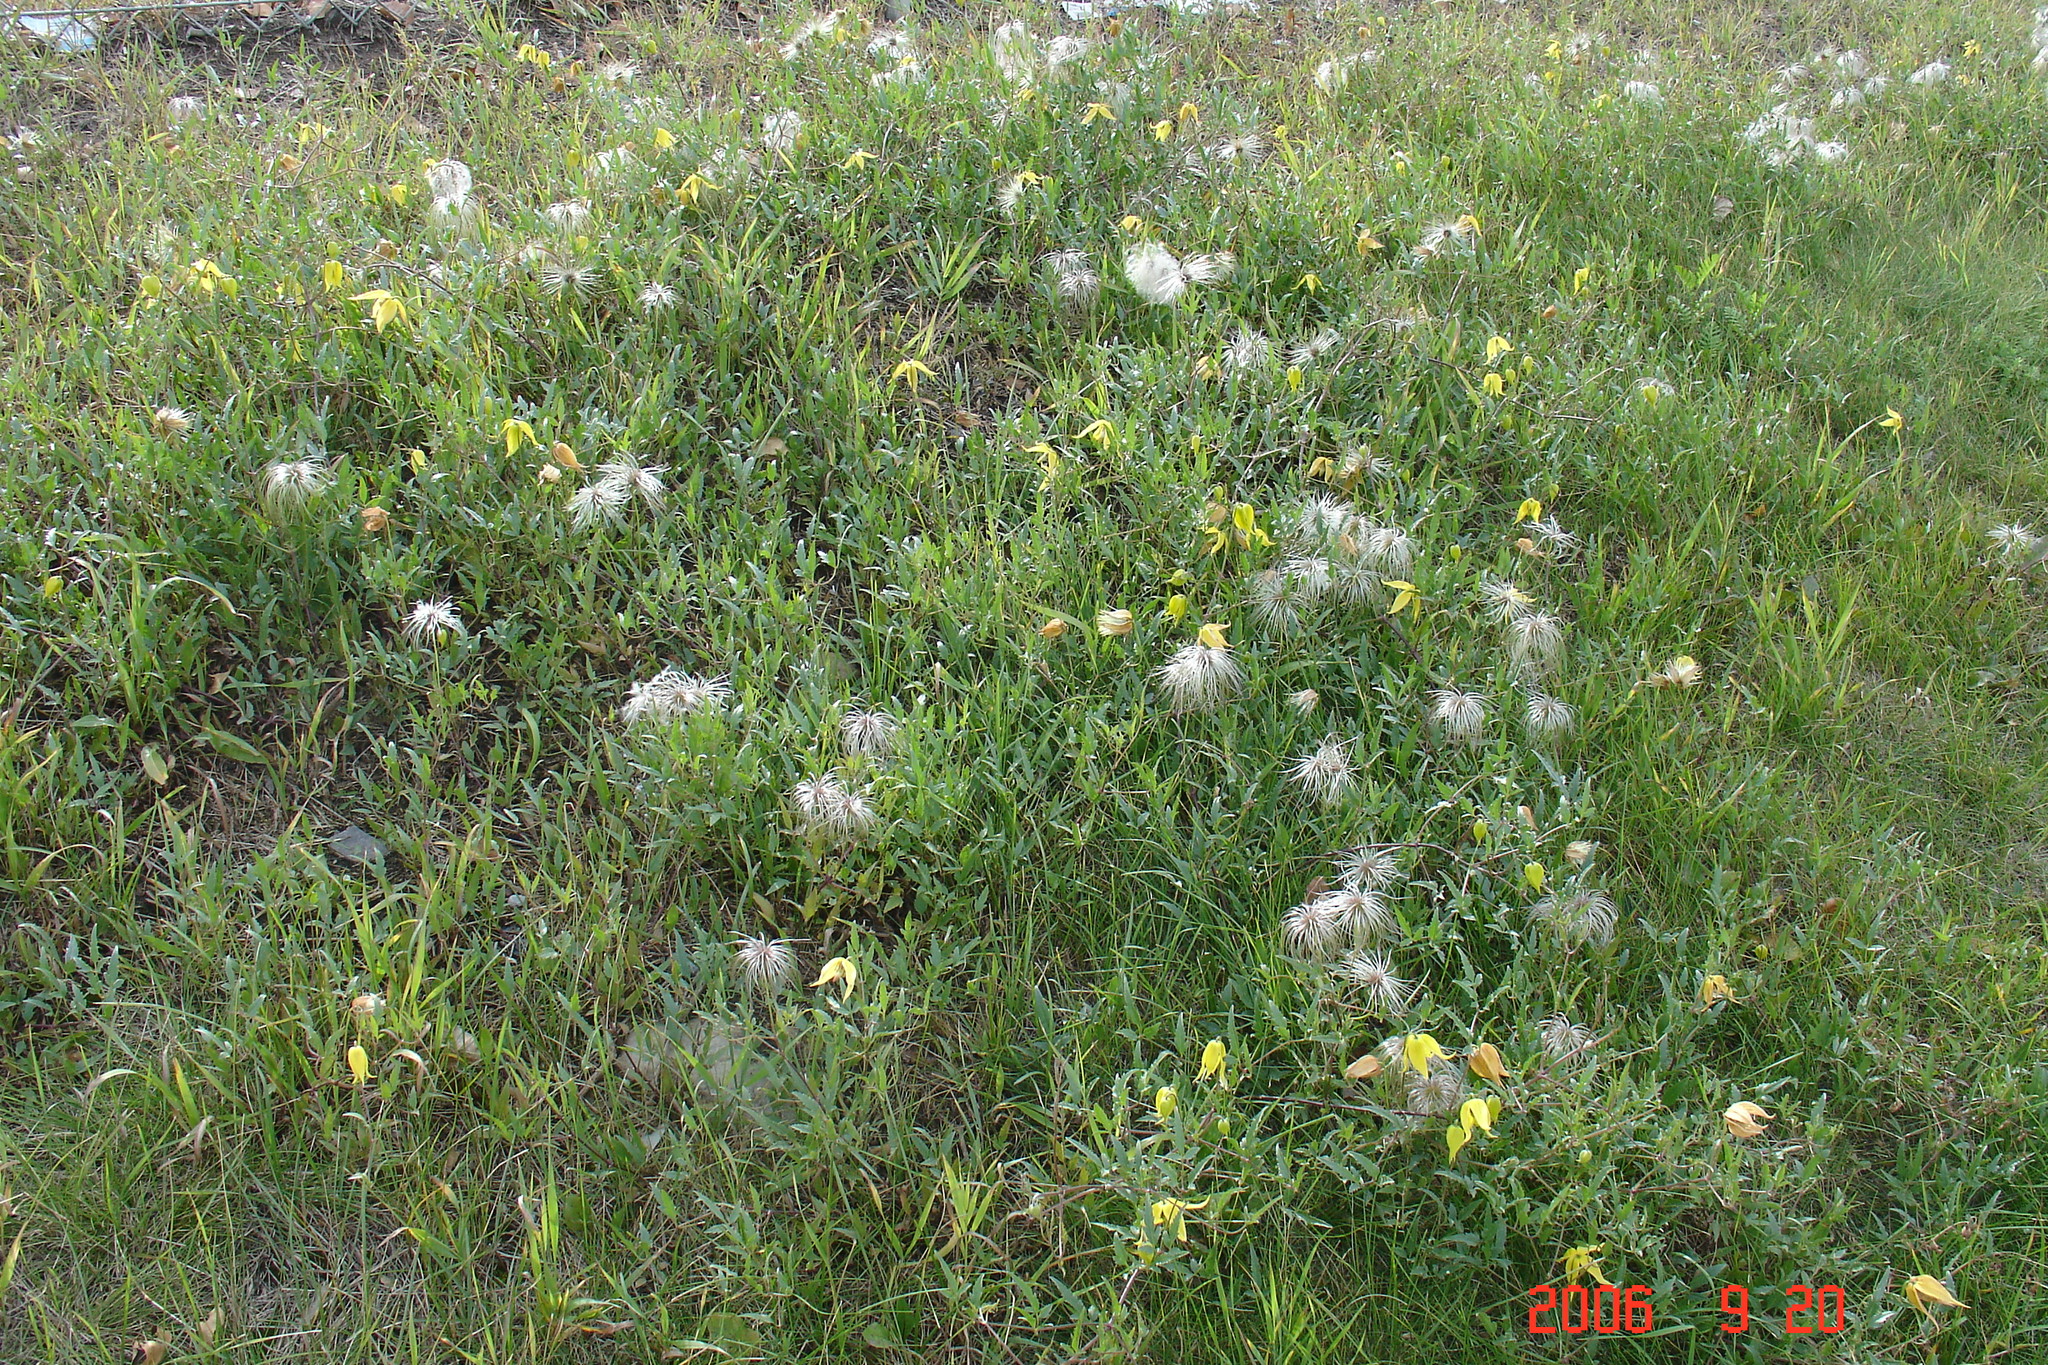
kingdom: Plantae
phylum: Tracheophyta
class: Magnoliopsida
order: Ranunculales
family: Ranunculaceae
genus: Clematis
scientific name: Clematis tangutica
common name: Orange-peel clematis
